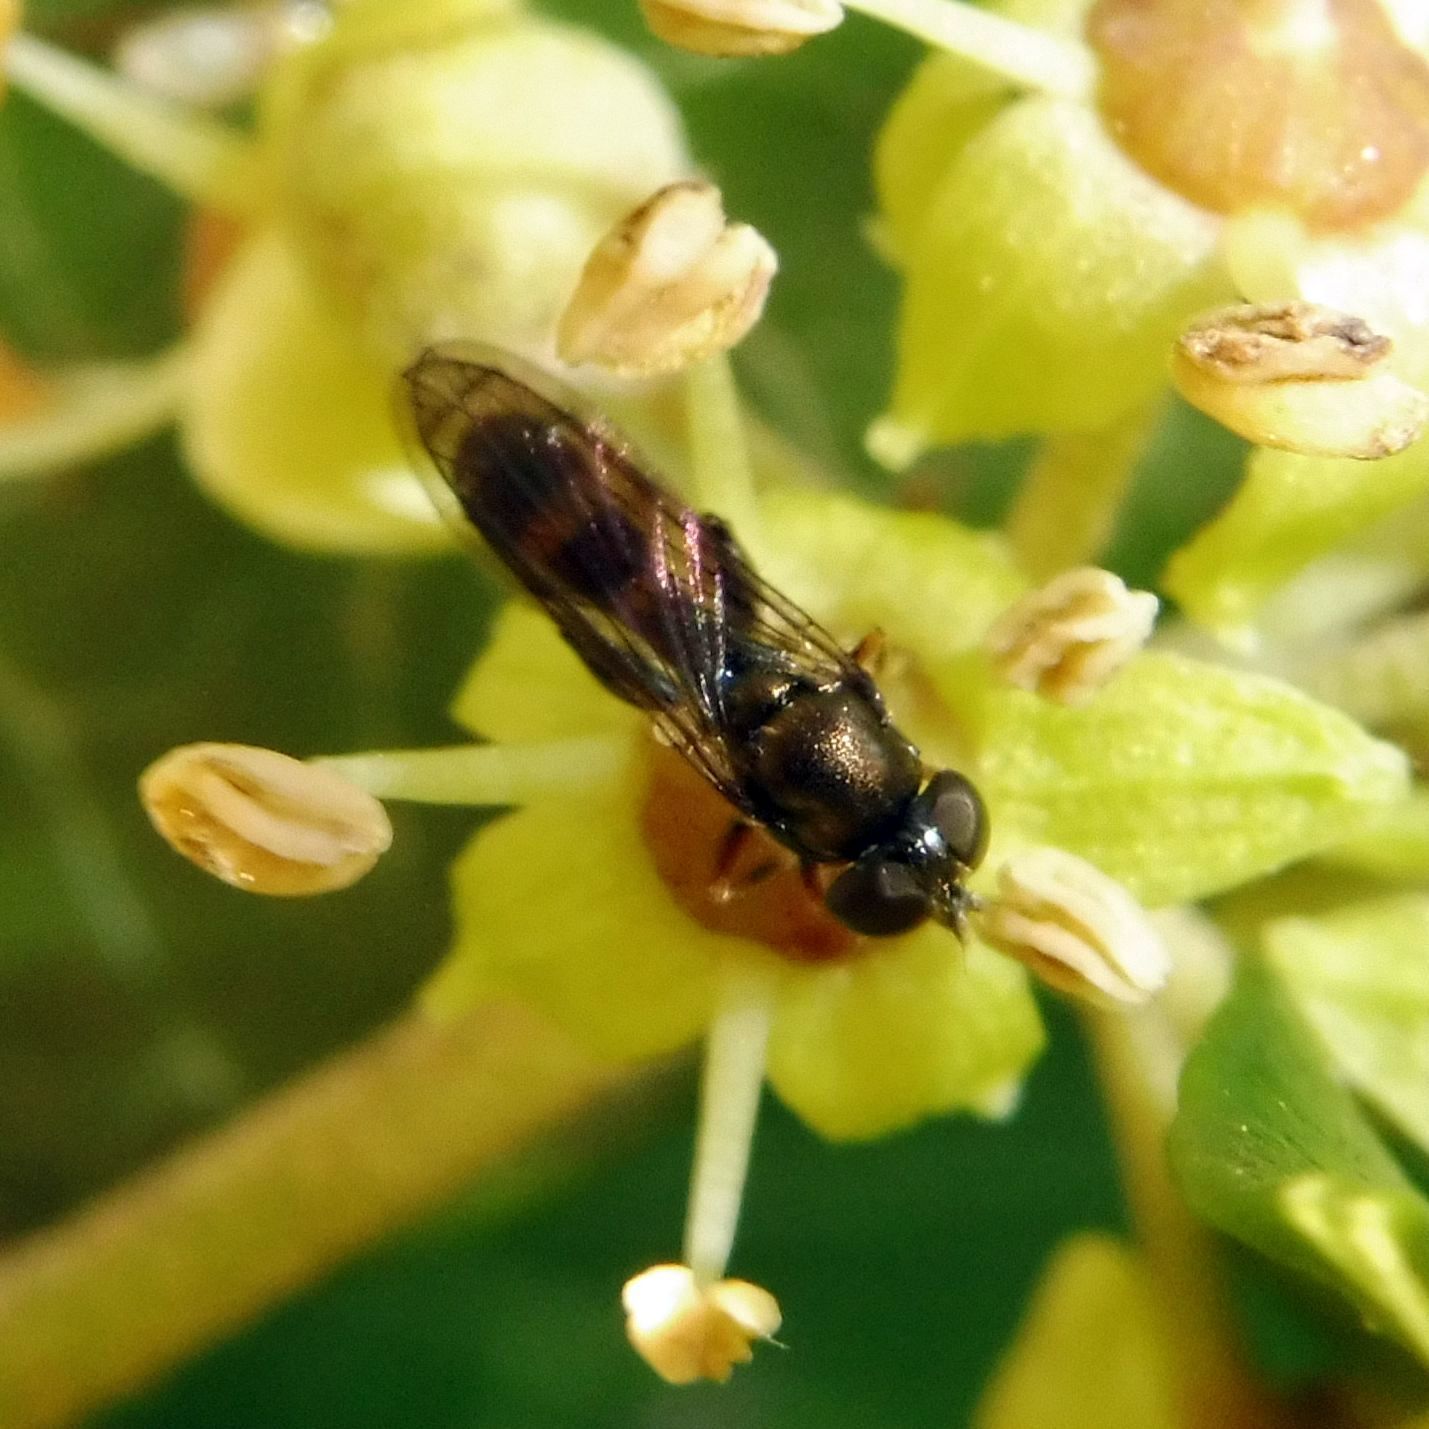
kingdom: Animalia
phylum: Arthropoda
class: Insecta
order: Diptera
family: Syrphidae
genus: Neoascia
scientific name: Neoascia
